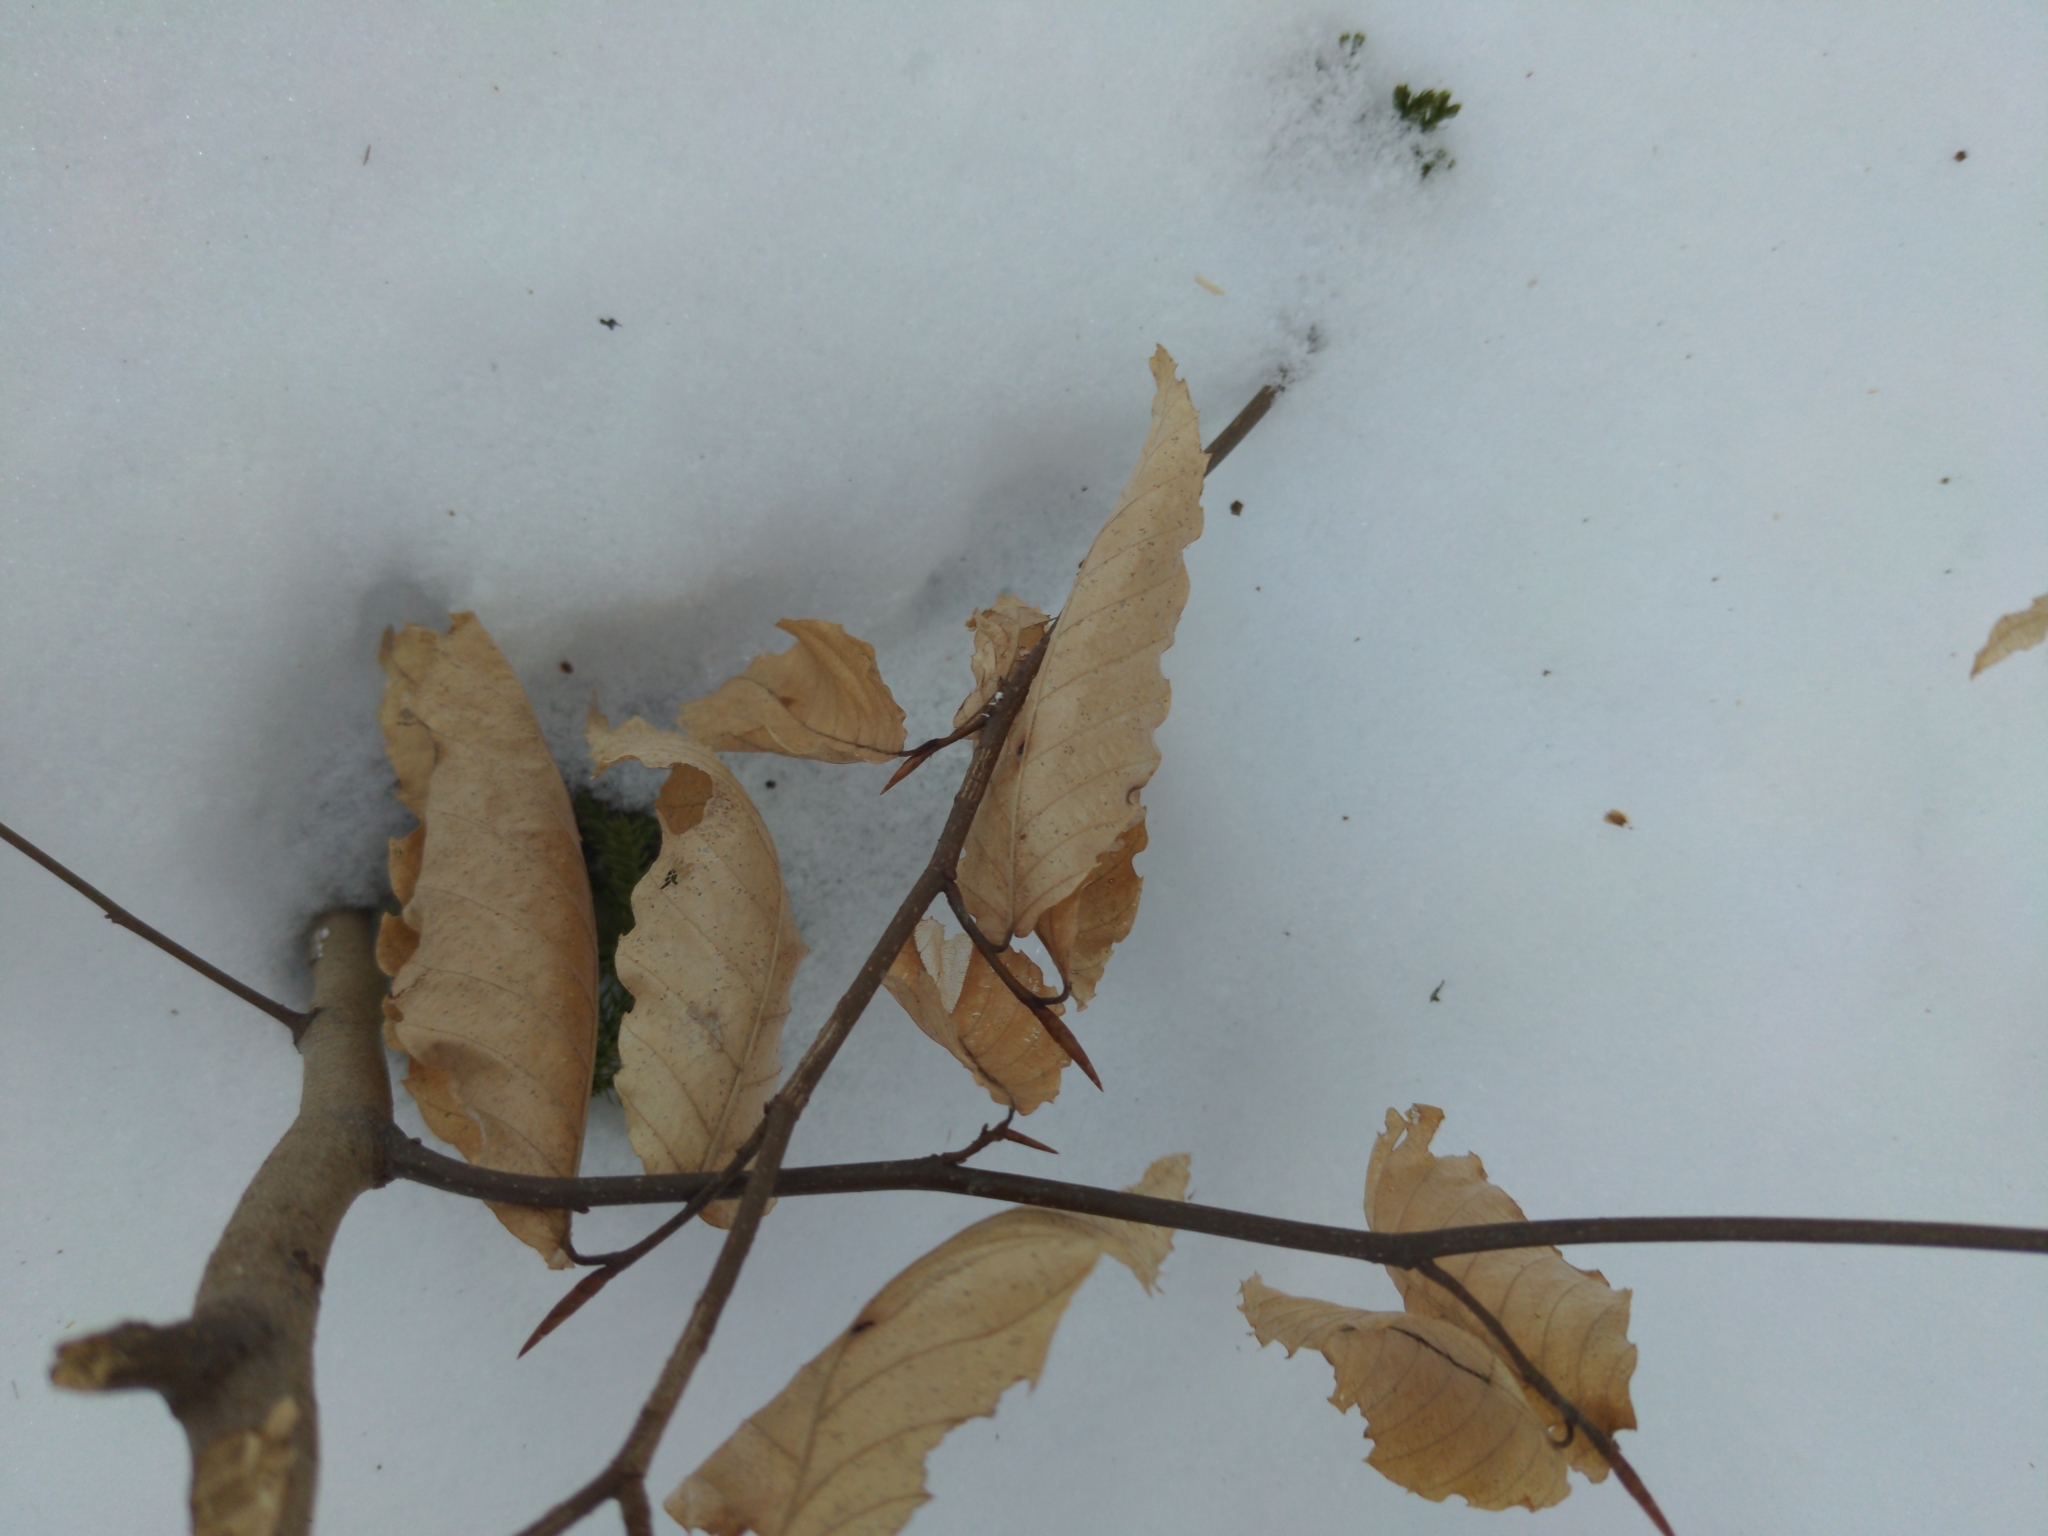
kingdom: Plantae
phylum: Tracheophyta
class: Magnoliopsida
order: Fagales
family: Fagaceae
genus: Fagus
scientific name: Fagus grandifolia
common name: American beech
